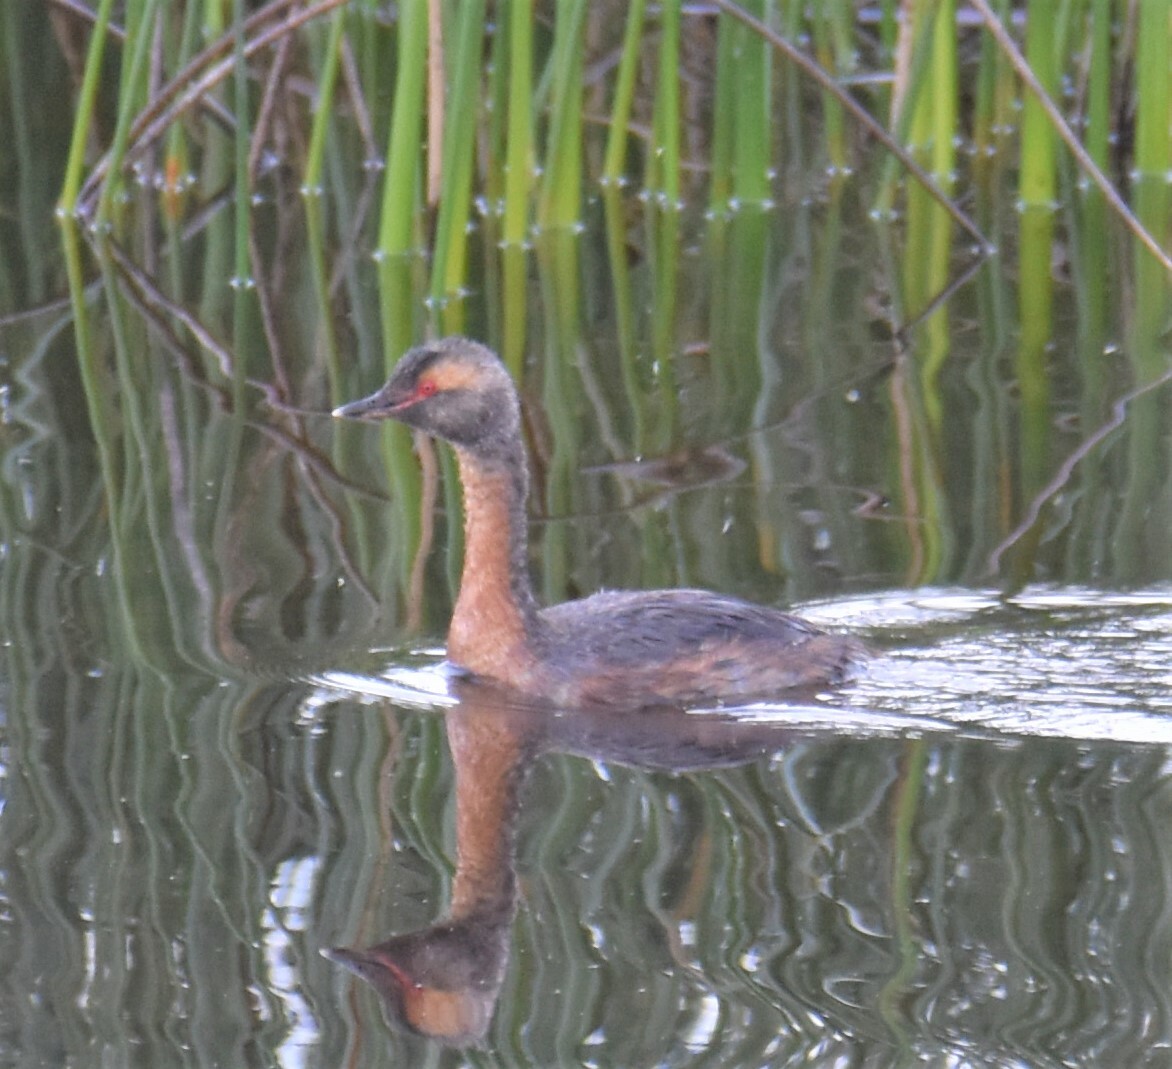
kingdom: Animalia
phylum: Chordata
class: Aves
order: Podicipediformes
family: Podicipedidae
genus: Podiceps
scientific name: Podiceps auritus
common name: Horned grebe
